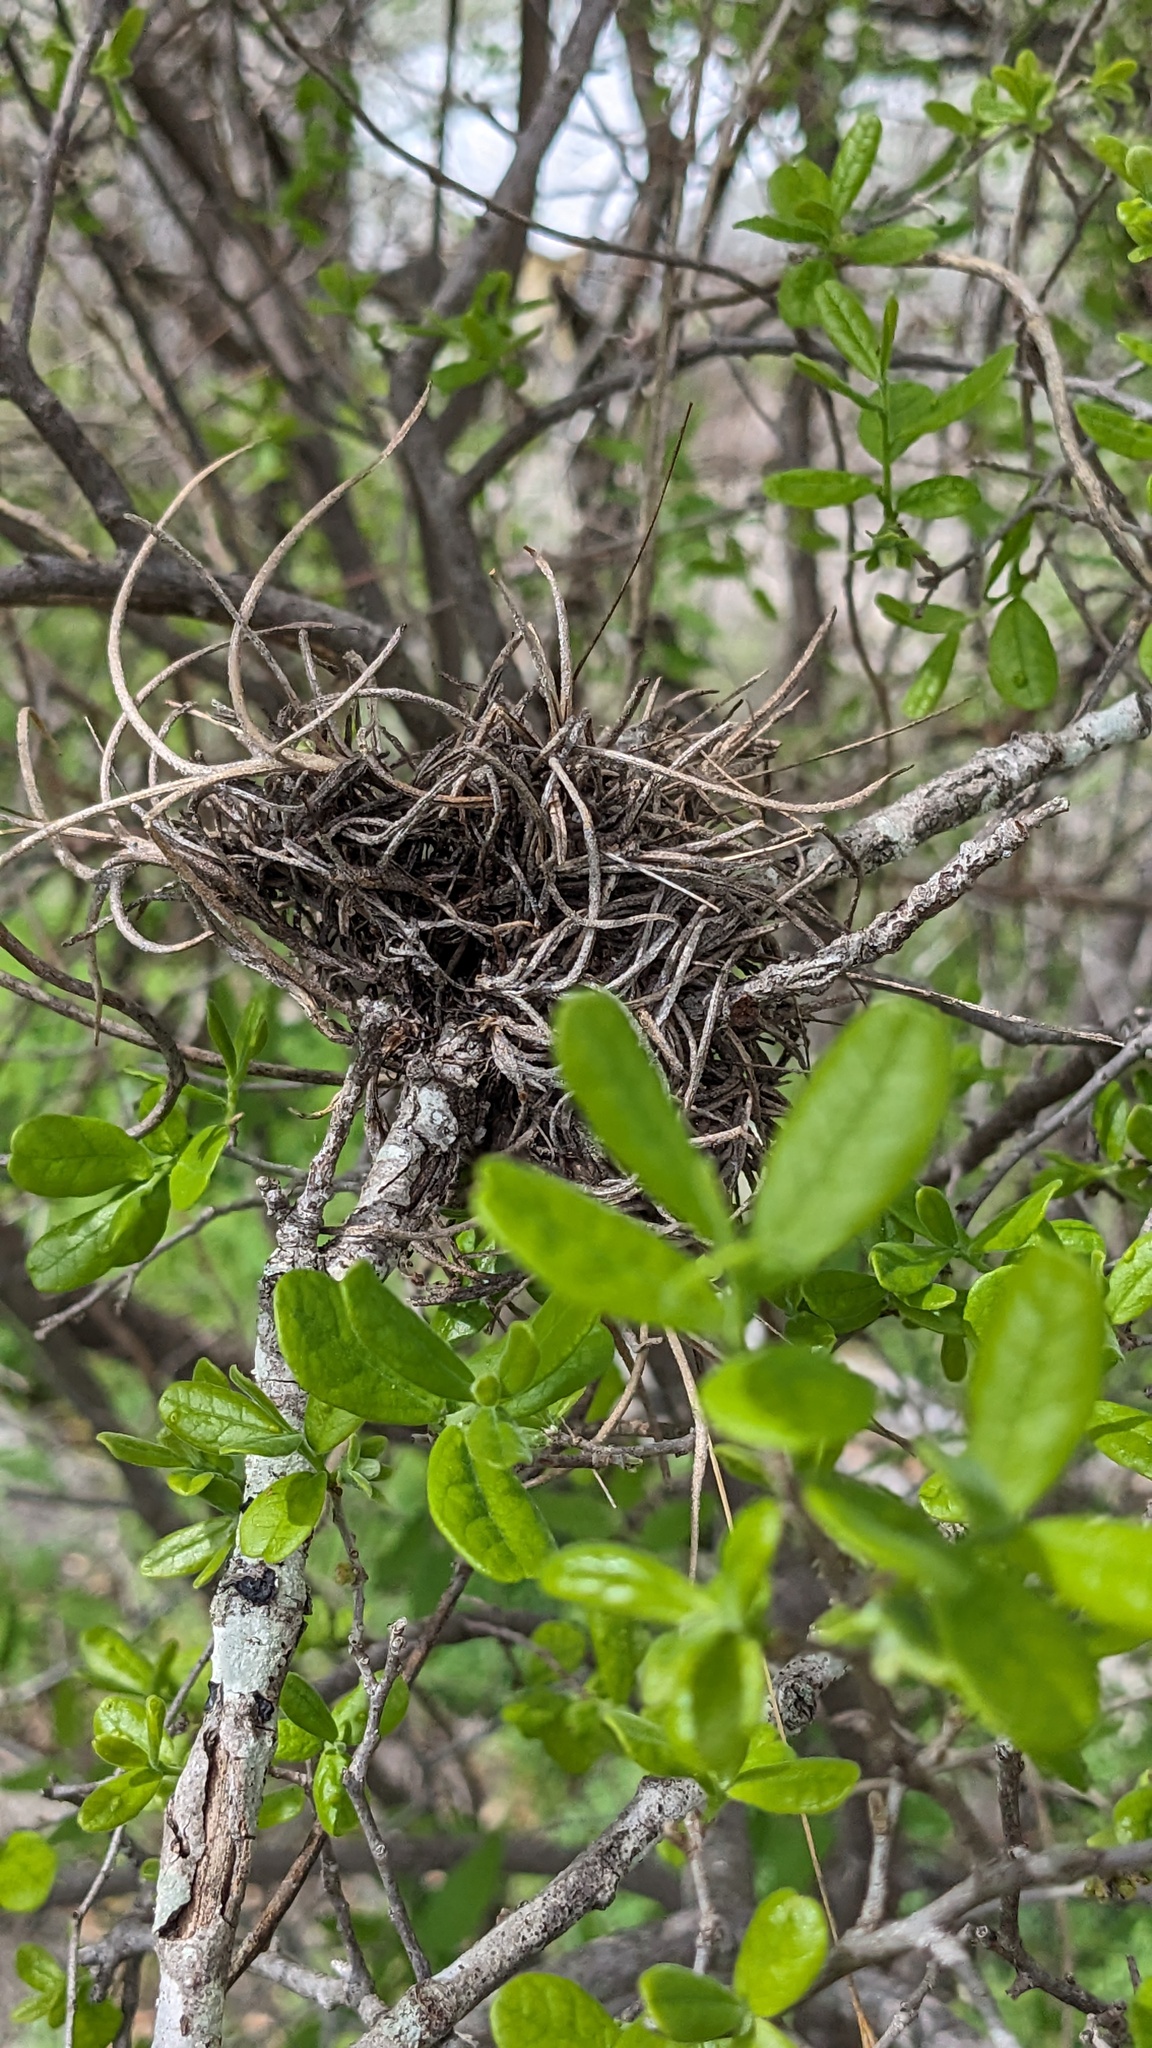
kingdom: Plantae
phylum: Tracheophyta
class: Liliopsida
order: Poales
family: Bromeliaceae
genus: Tillandsia
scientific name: Tillandsia recurvata
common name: Small ballmoss
